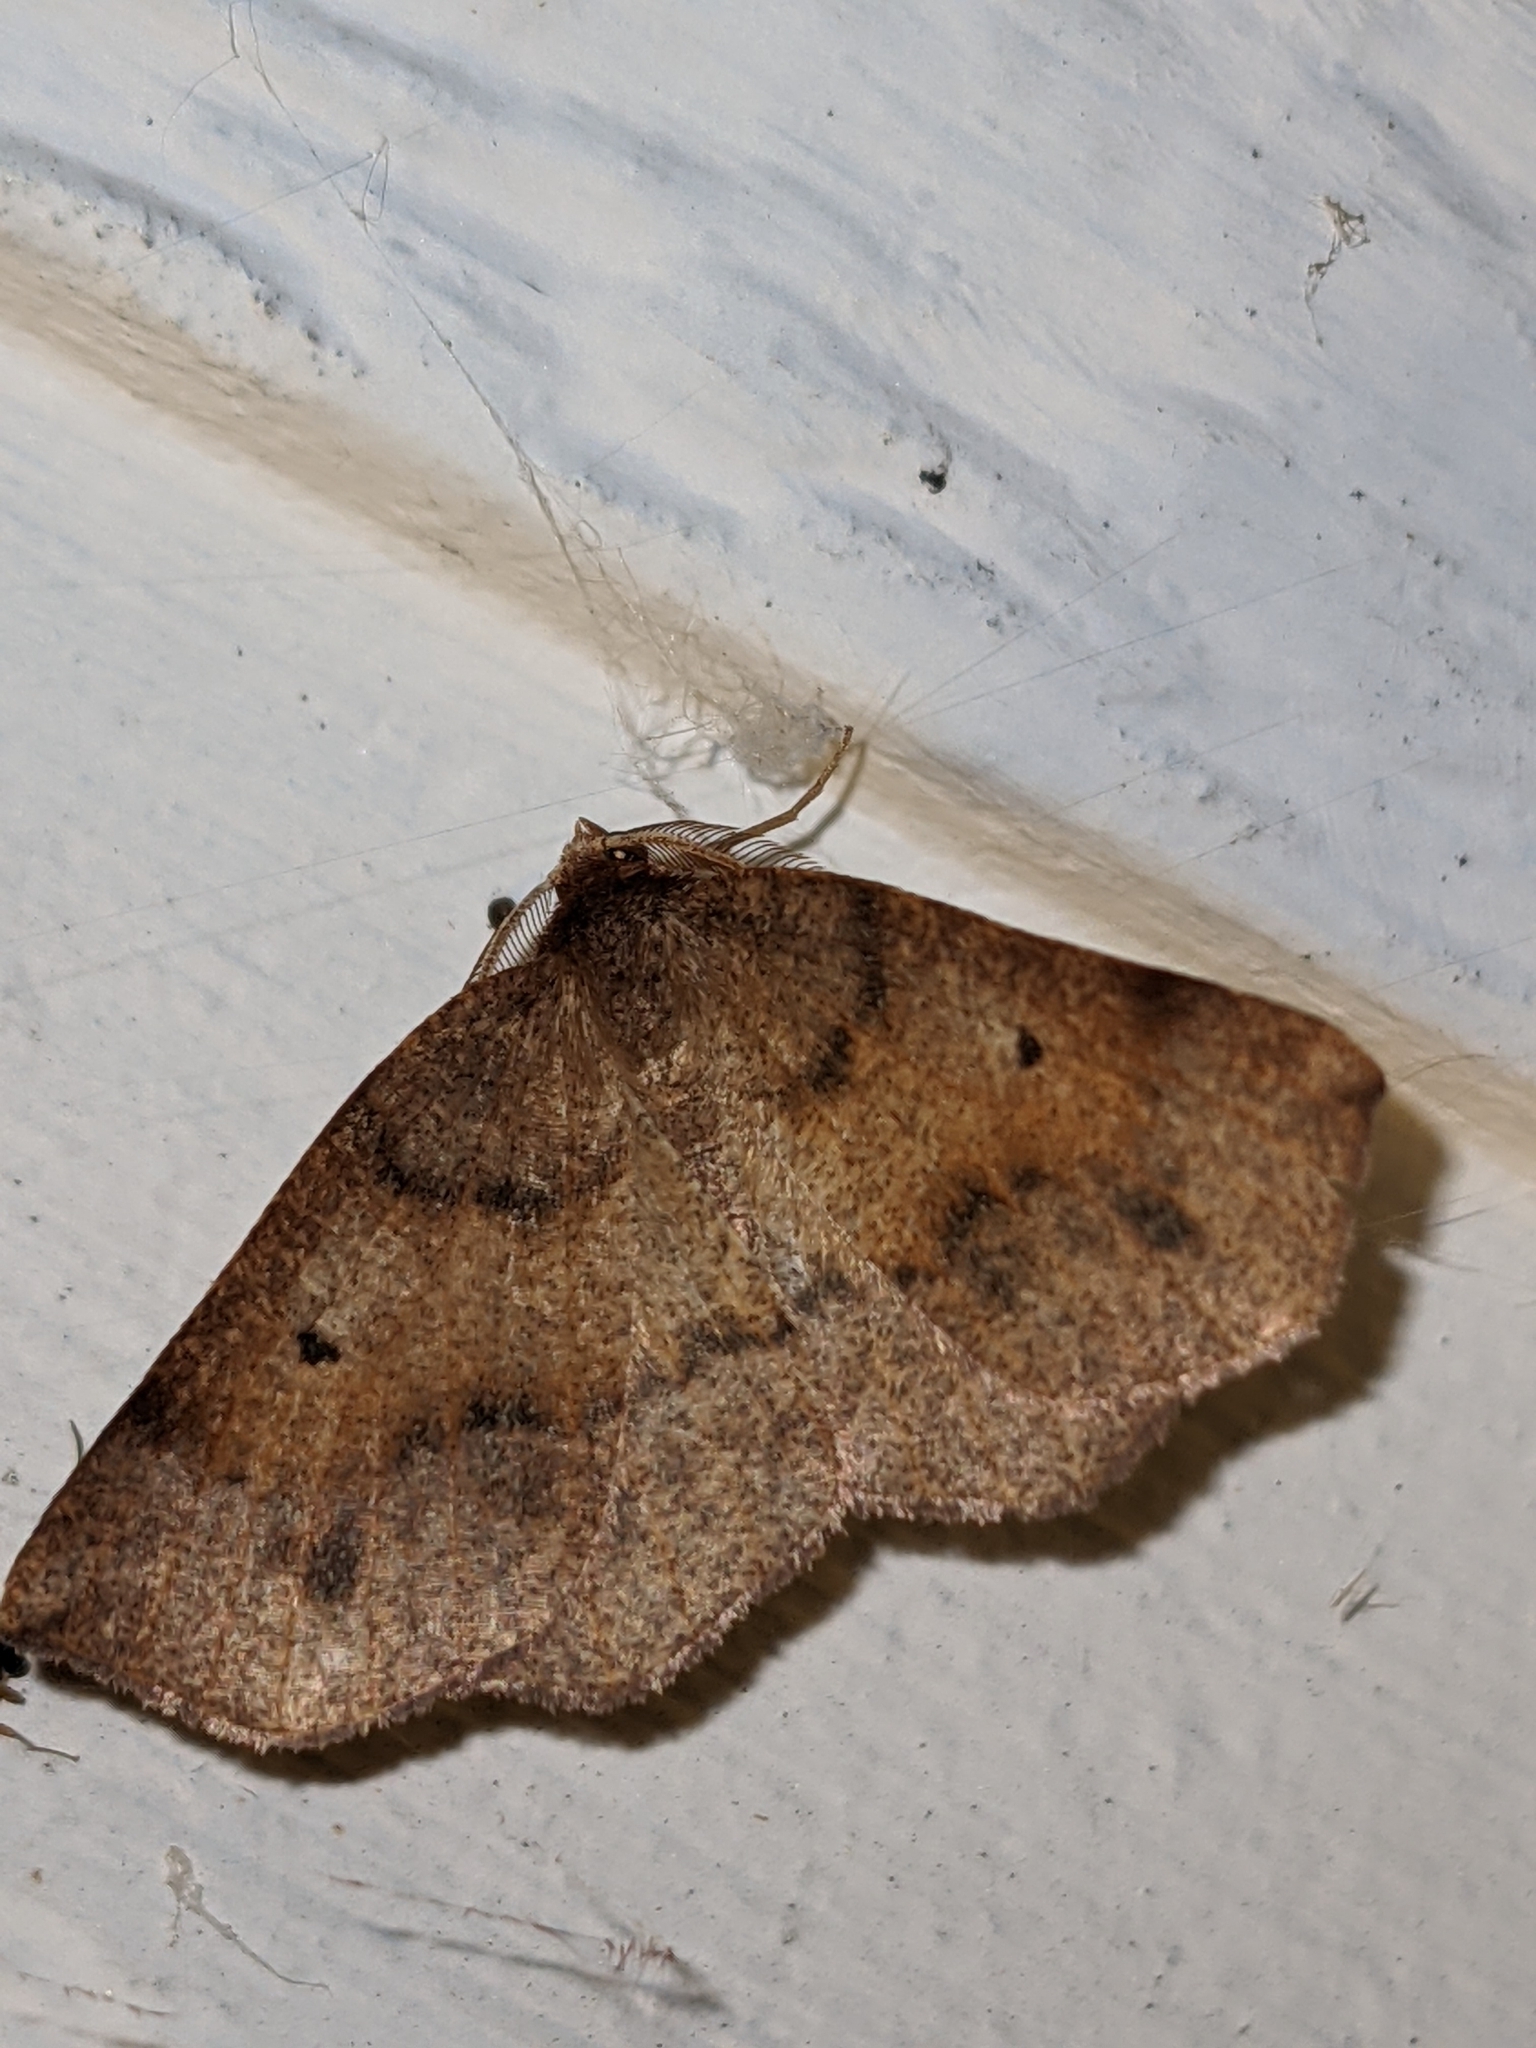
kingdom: Animalia
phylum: Arthropoda
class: Insecta
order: Lepidoptera
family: Geometridae
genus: Metarranthis
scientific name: Metarranthis duaria
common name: Ruddy metarranthis moth
